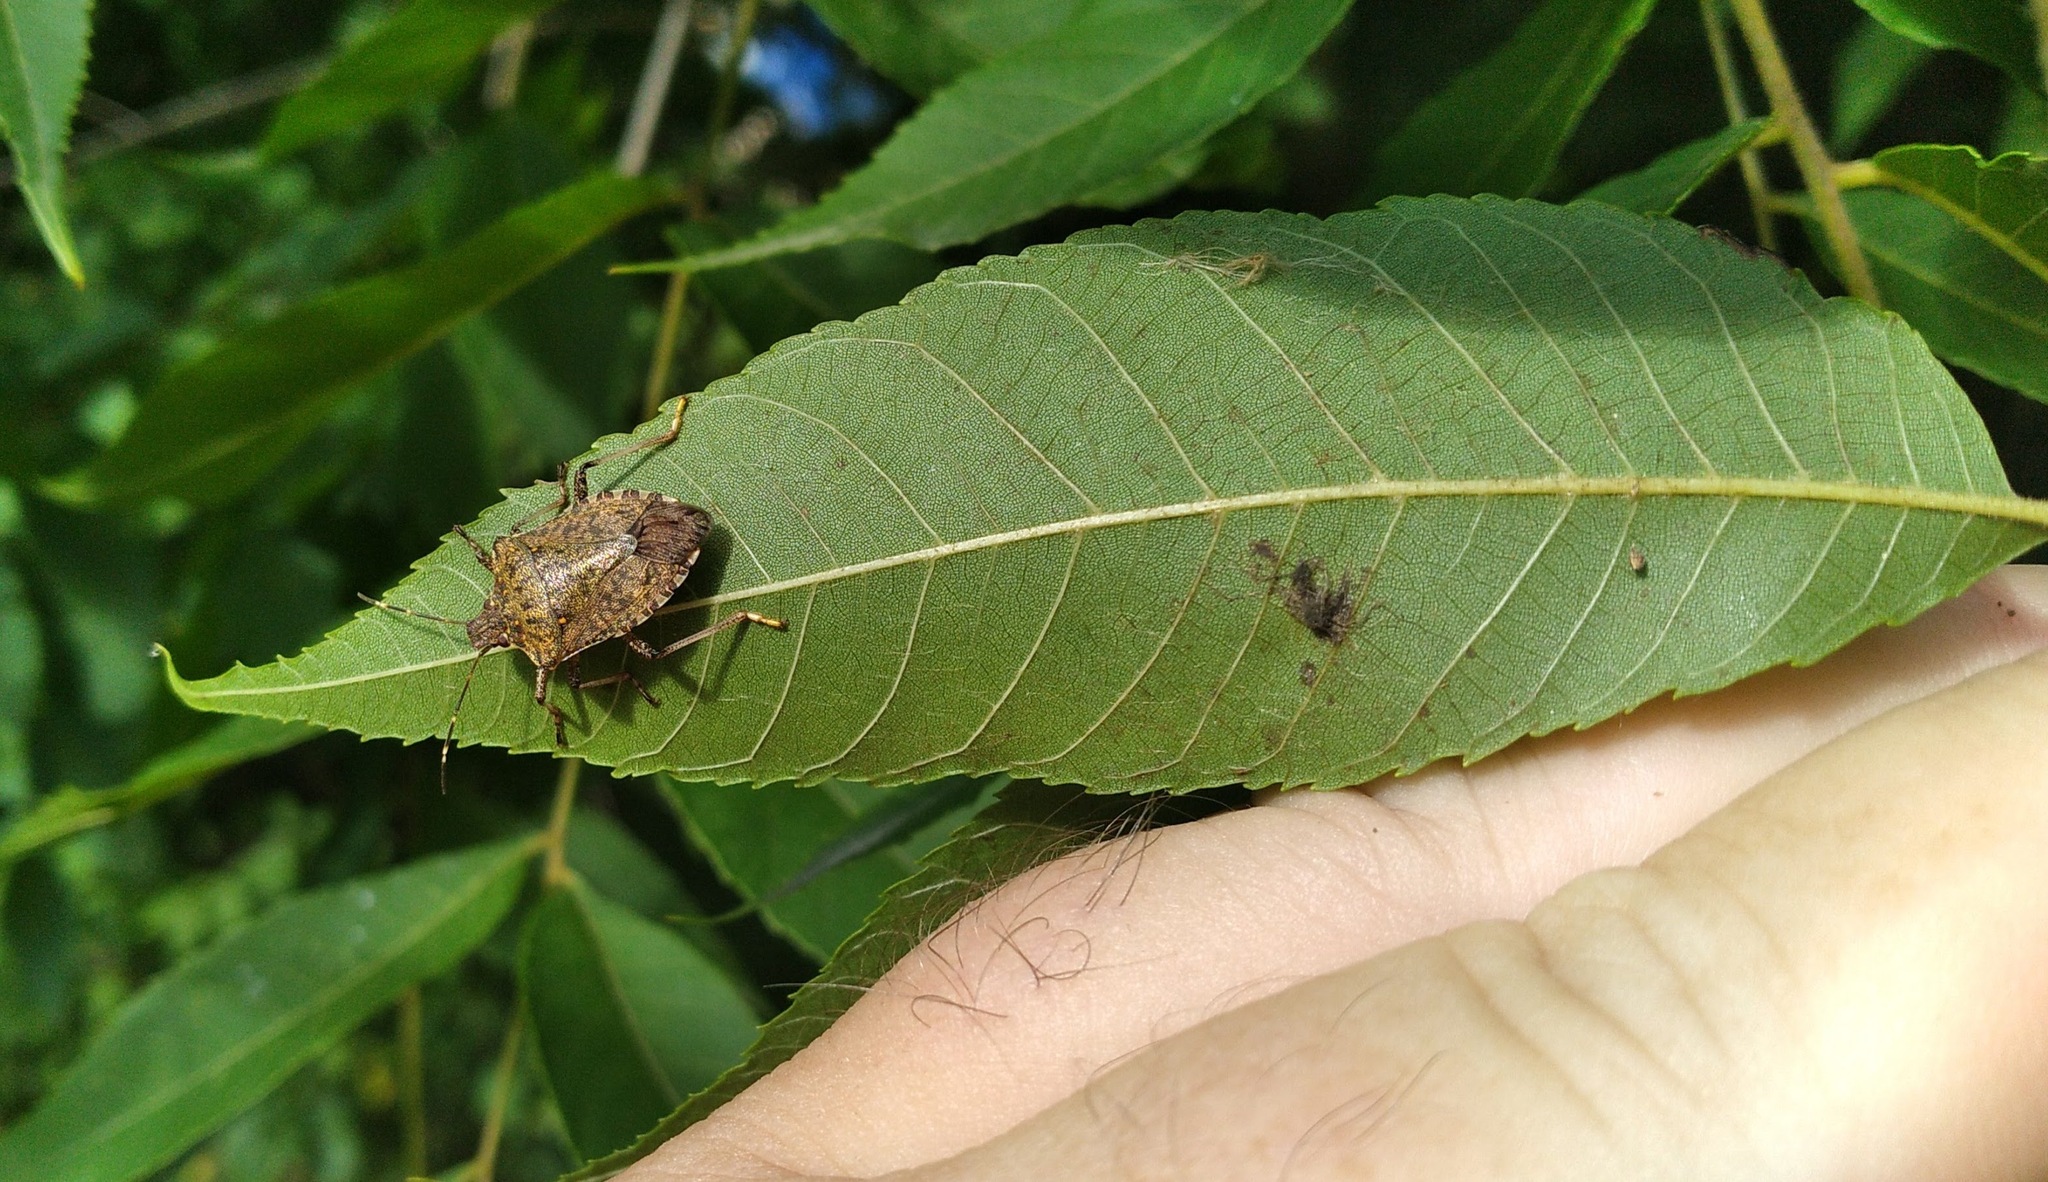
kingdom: Animalia
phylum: Arthropoda
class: Insecta
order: Hemiptera
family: Pentatomidae
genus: Halyomorpha
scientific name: Halyomorpha halys
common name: Brown marmorated stink bug
